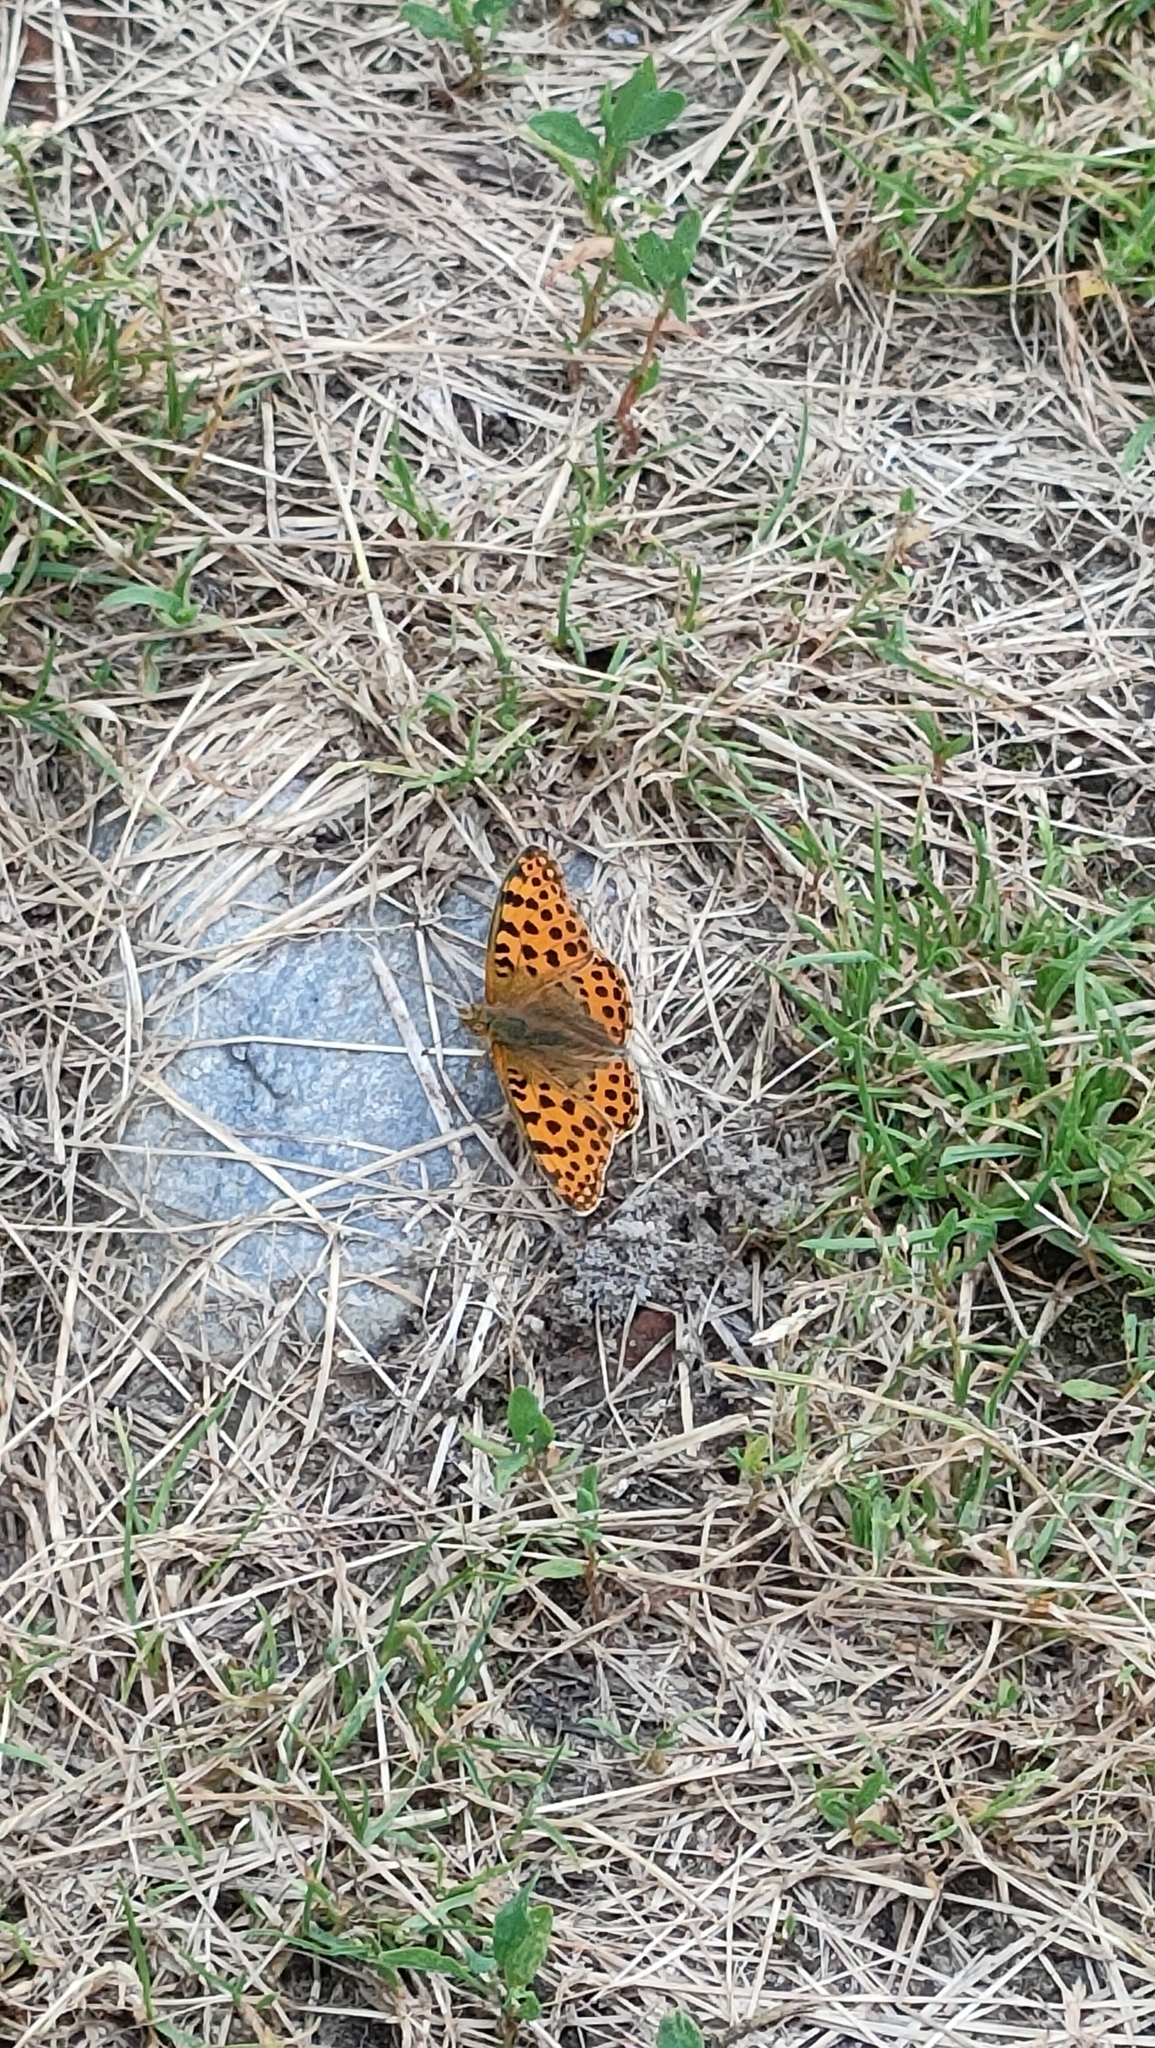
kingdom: Animalia
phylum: Arthropoda
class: Insecta
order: Lepidoptera
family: Nymphalidae
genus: Issoria
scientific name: Issoria lathonia
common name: Queen of spain fritillary
